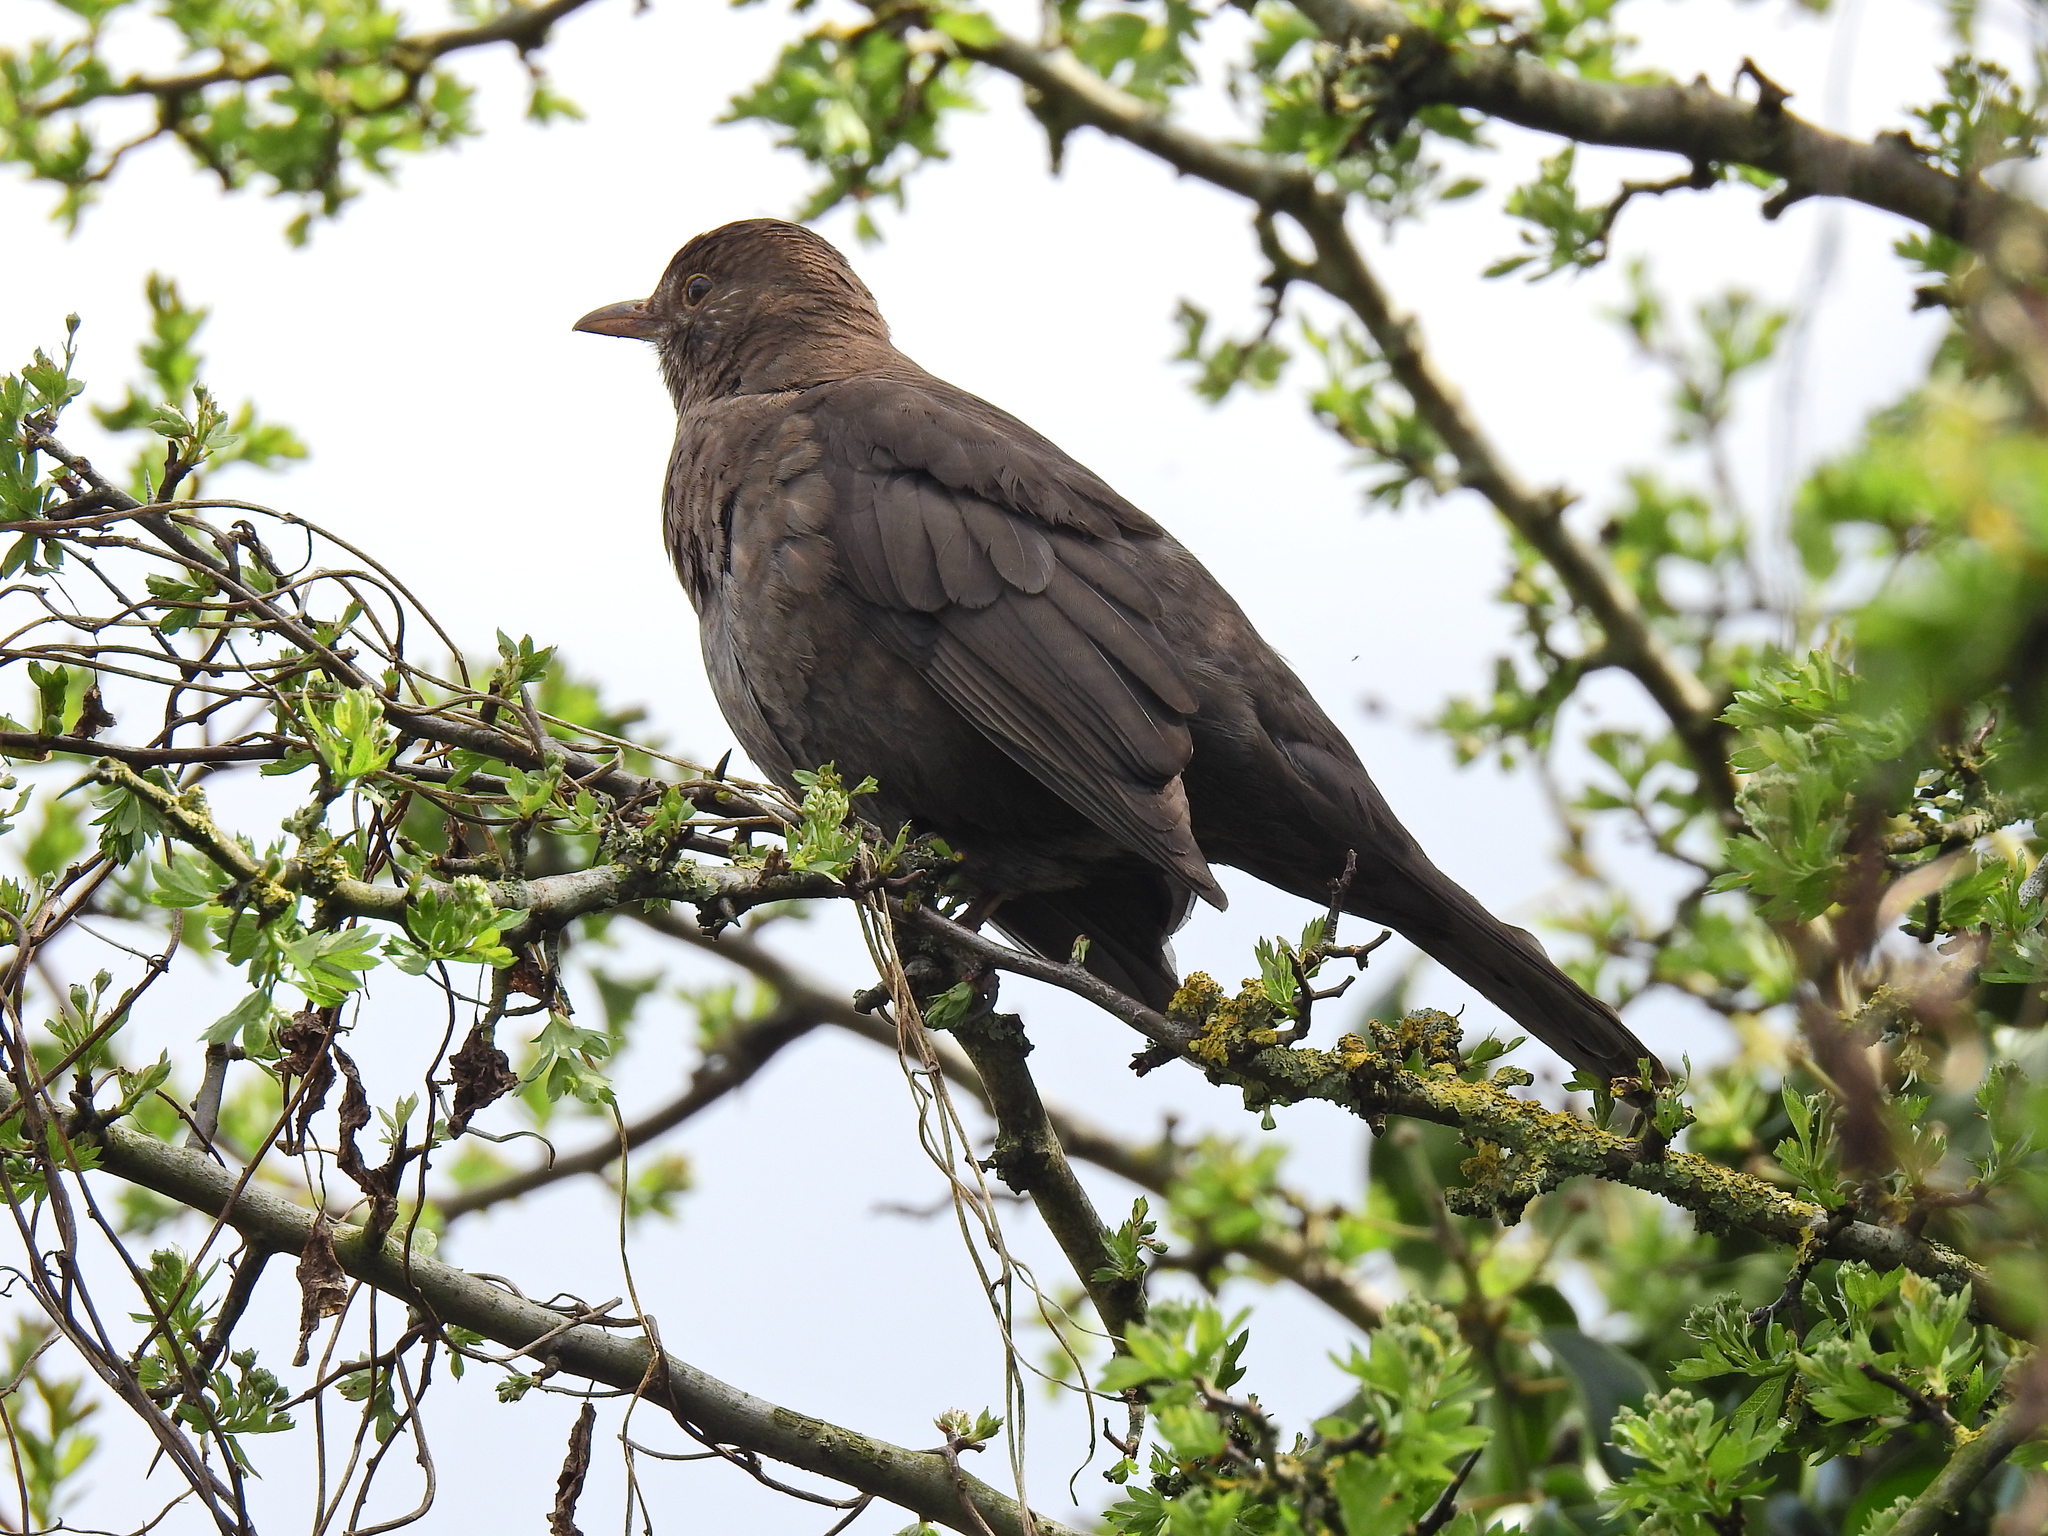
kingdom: Animalia
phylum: Chordata
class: Aves
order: Passeriformes
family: Turdidae
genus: Turdus
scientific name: Turdus merula
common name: Common blackbird
